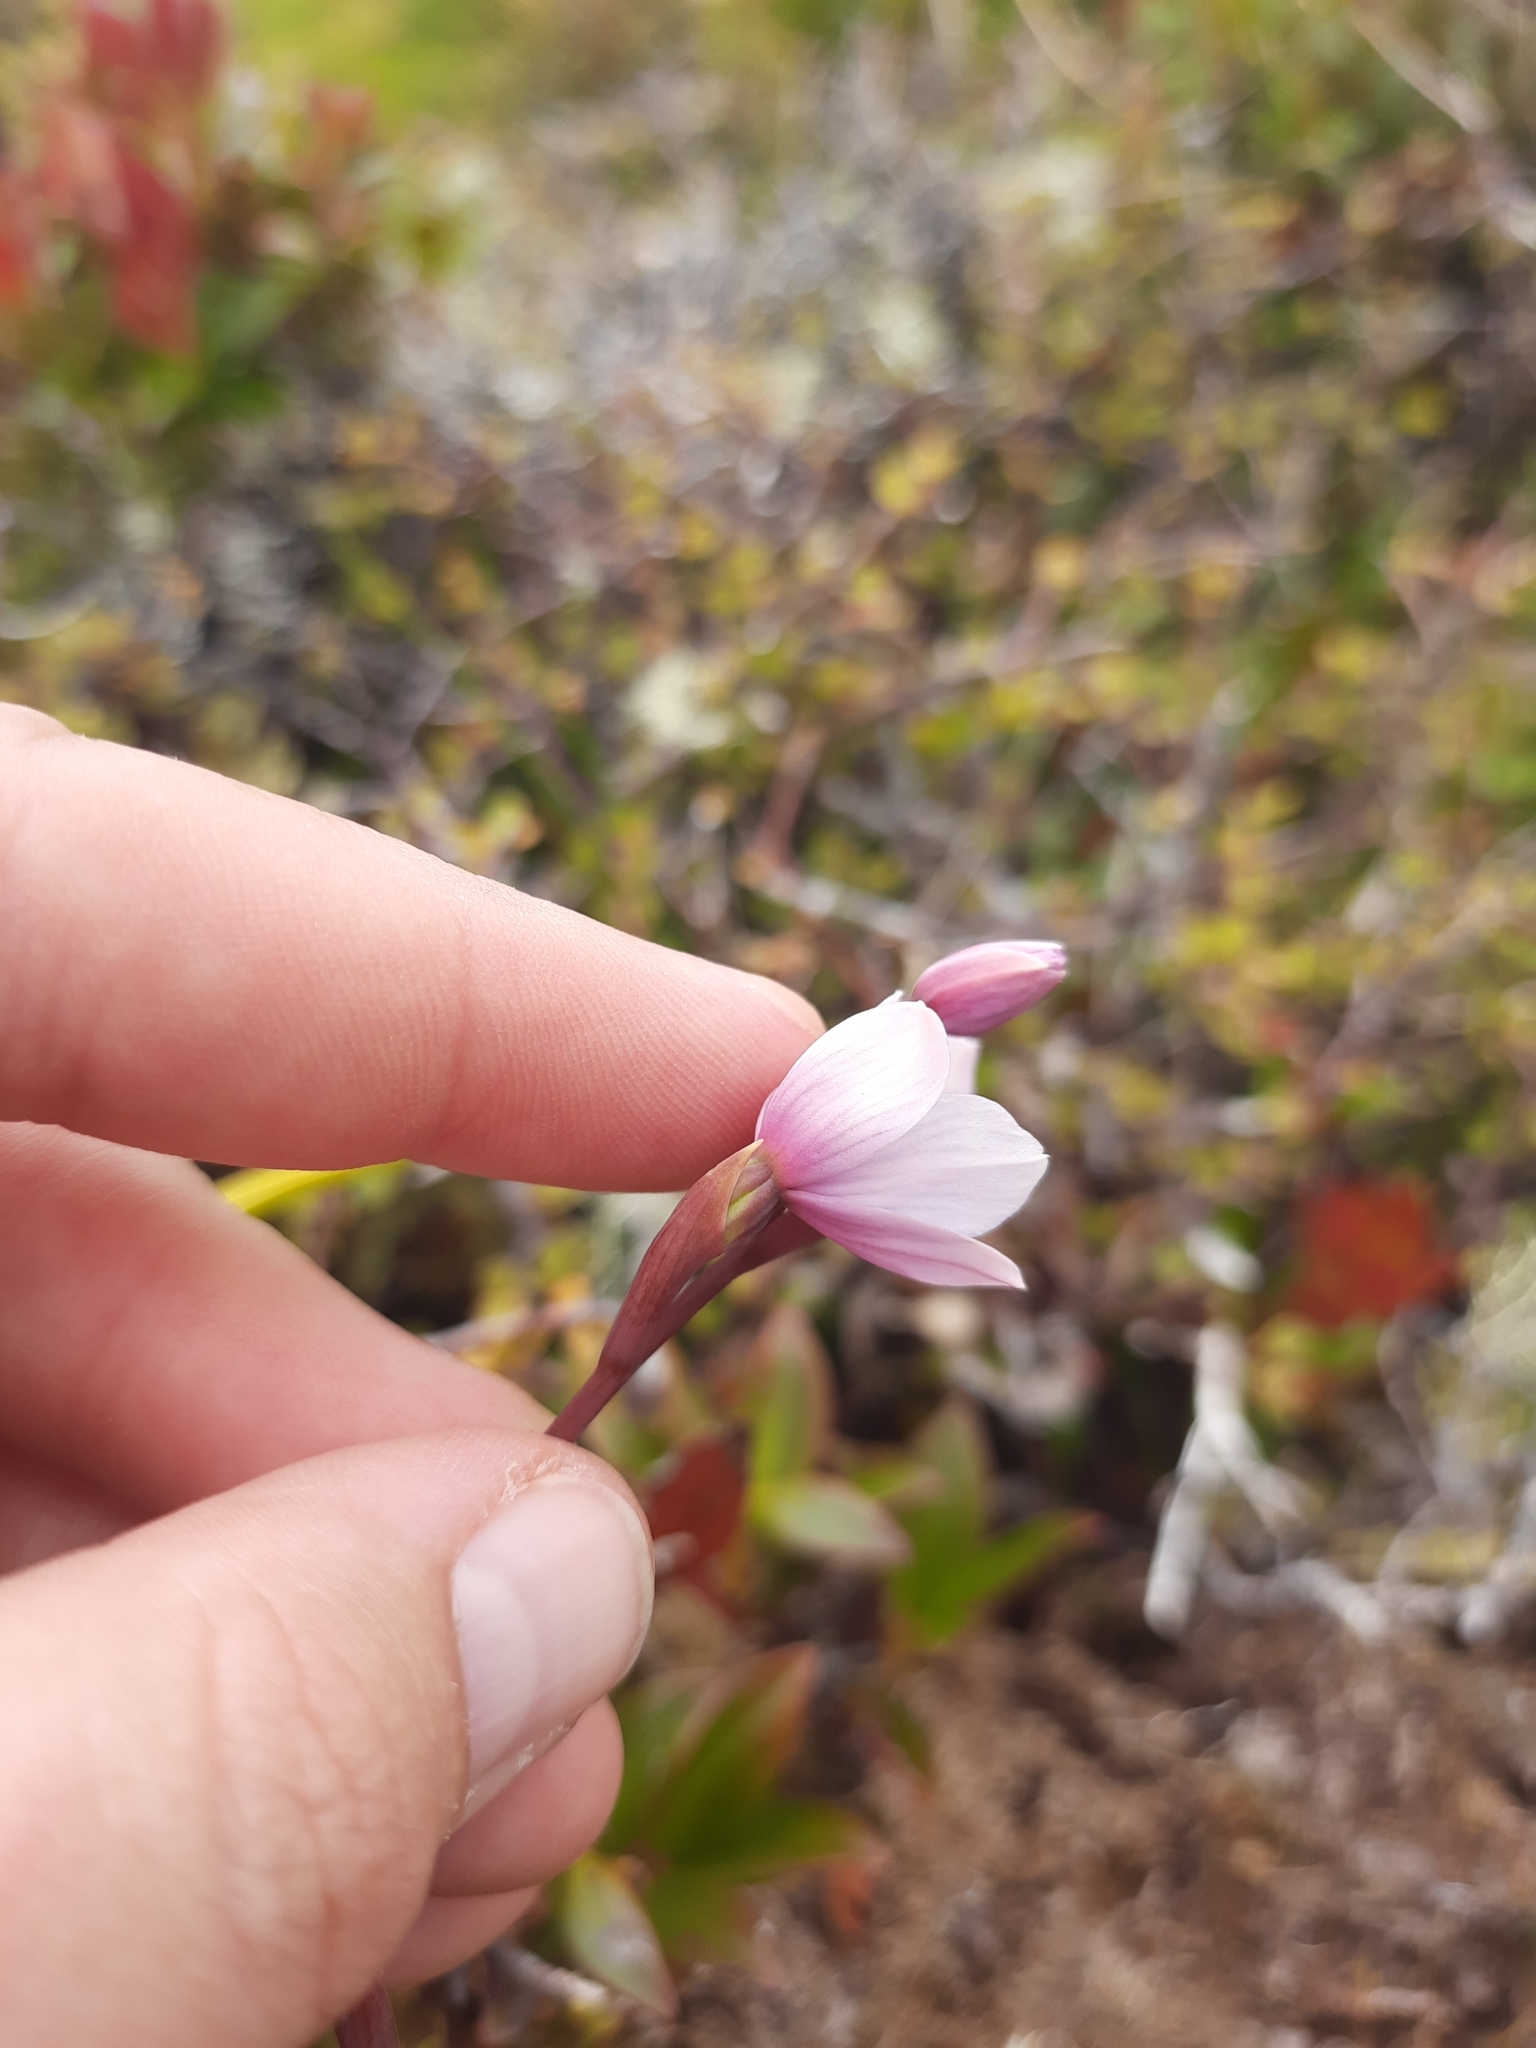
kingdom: Plantae
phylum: Tracheophyta
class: Liliopsida
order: Asparagales
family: Orchidaceae
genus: Thelymitra
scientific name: Thelymitra pulchella
